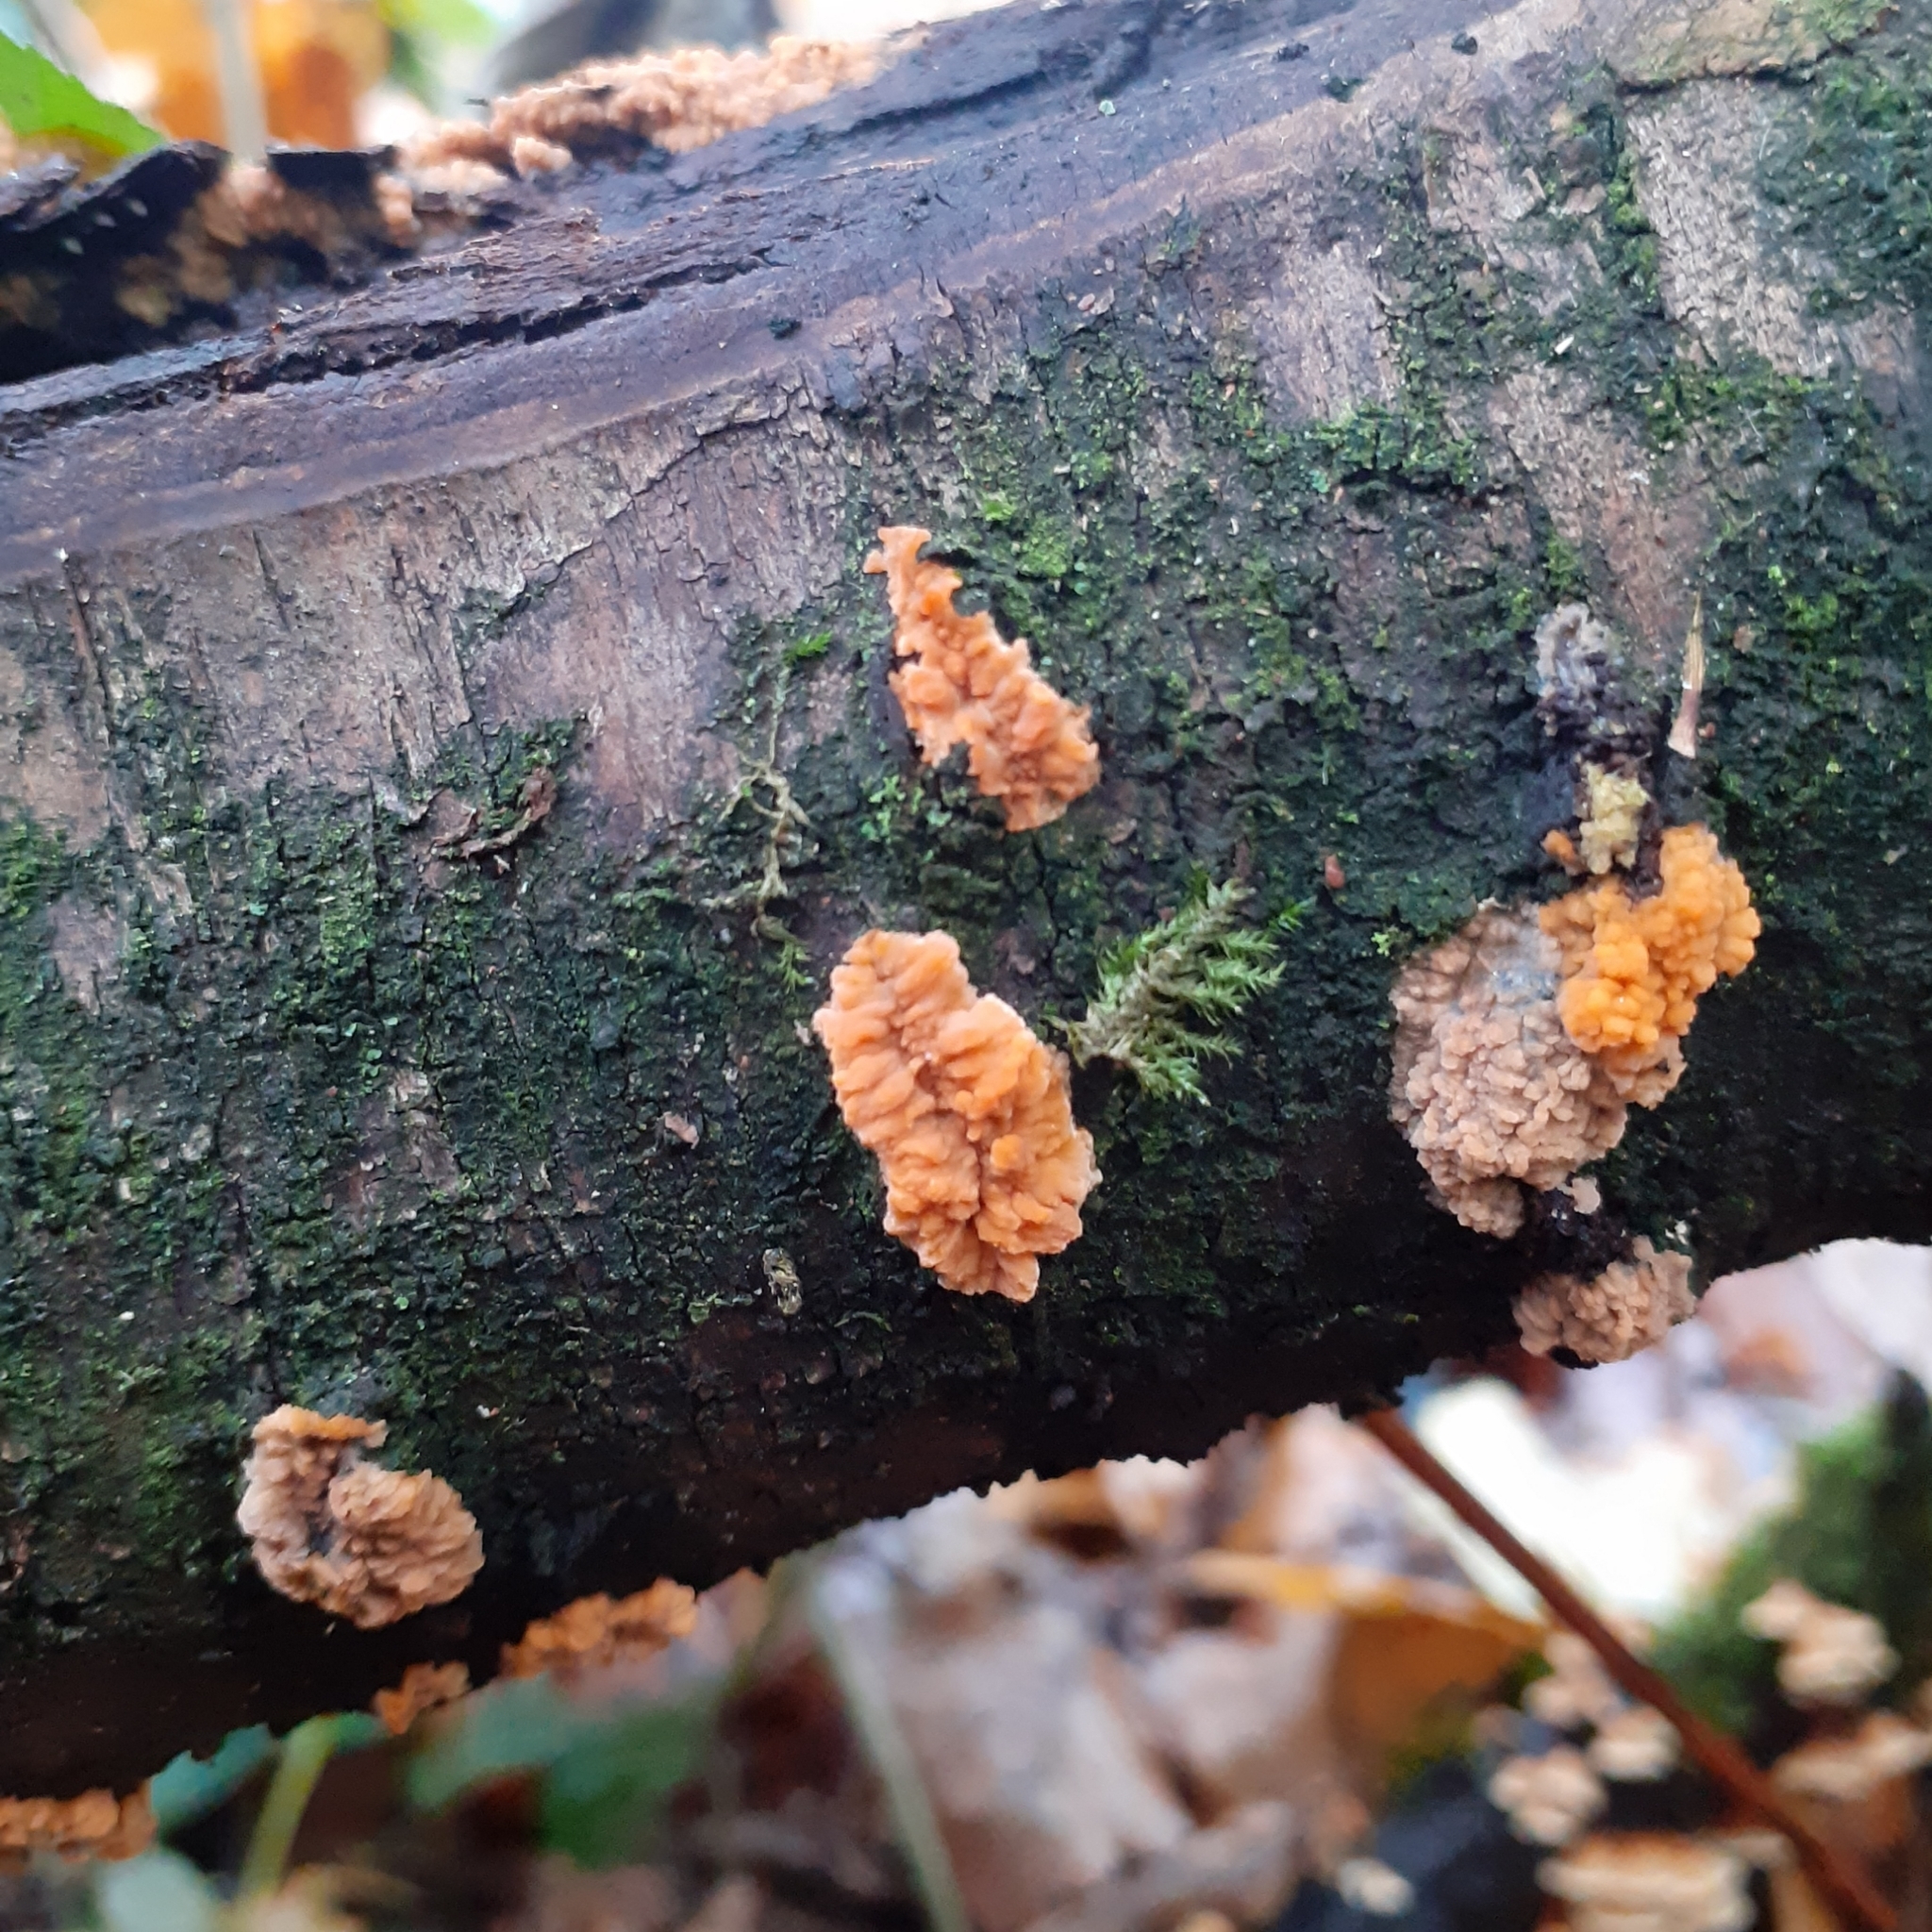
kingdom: Fungi
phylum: Basidiomycota
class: Agaricomycetes
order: Polyporales
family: Meruliaceae
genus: Phlebia
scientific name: Phlebia radiata
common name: Wrinkled crust
